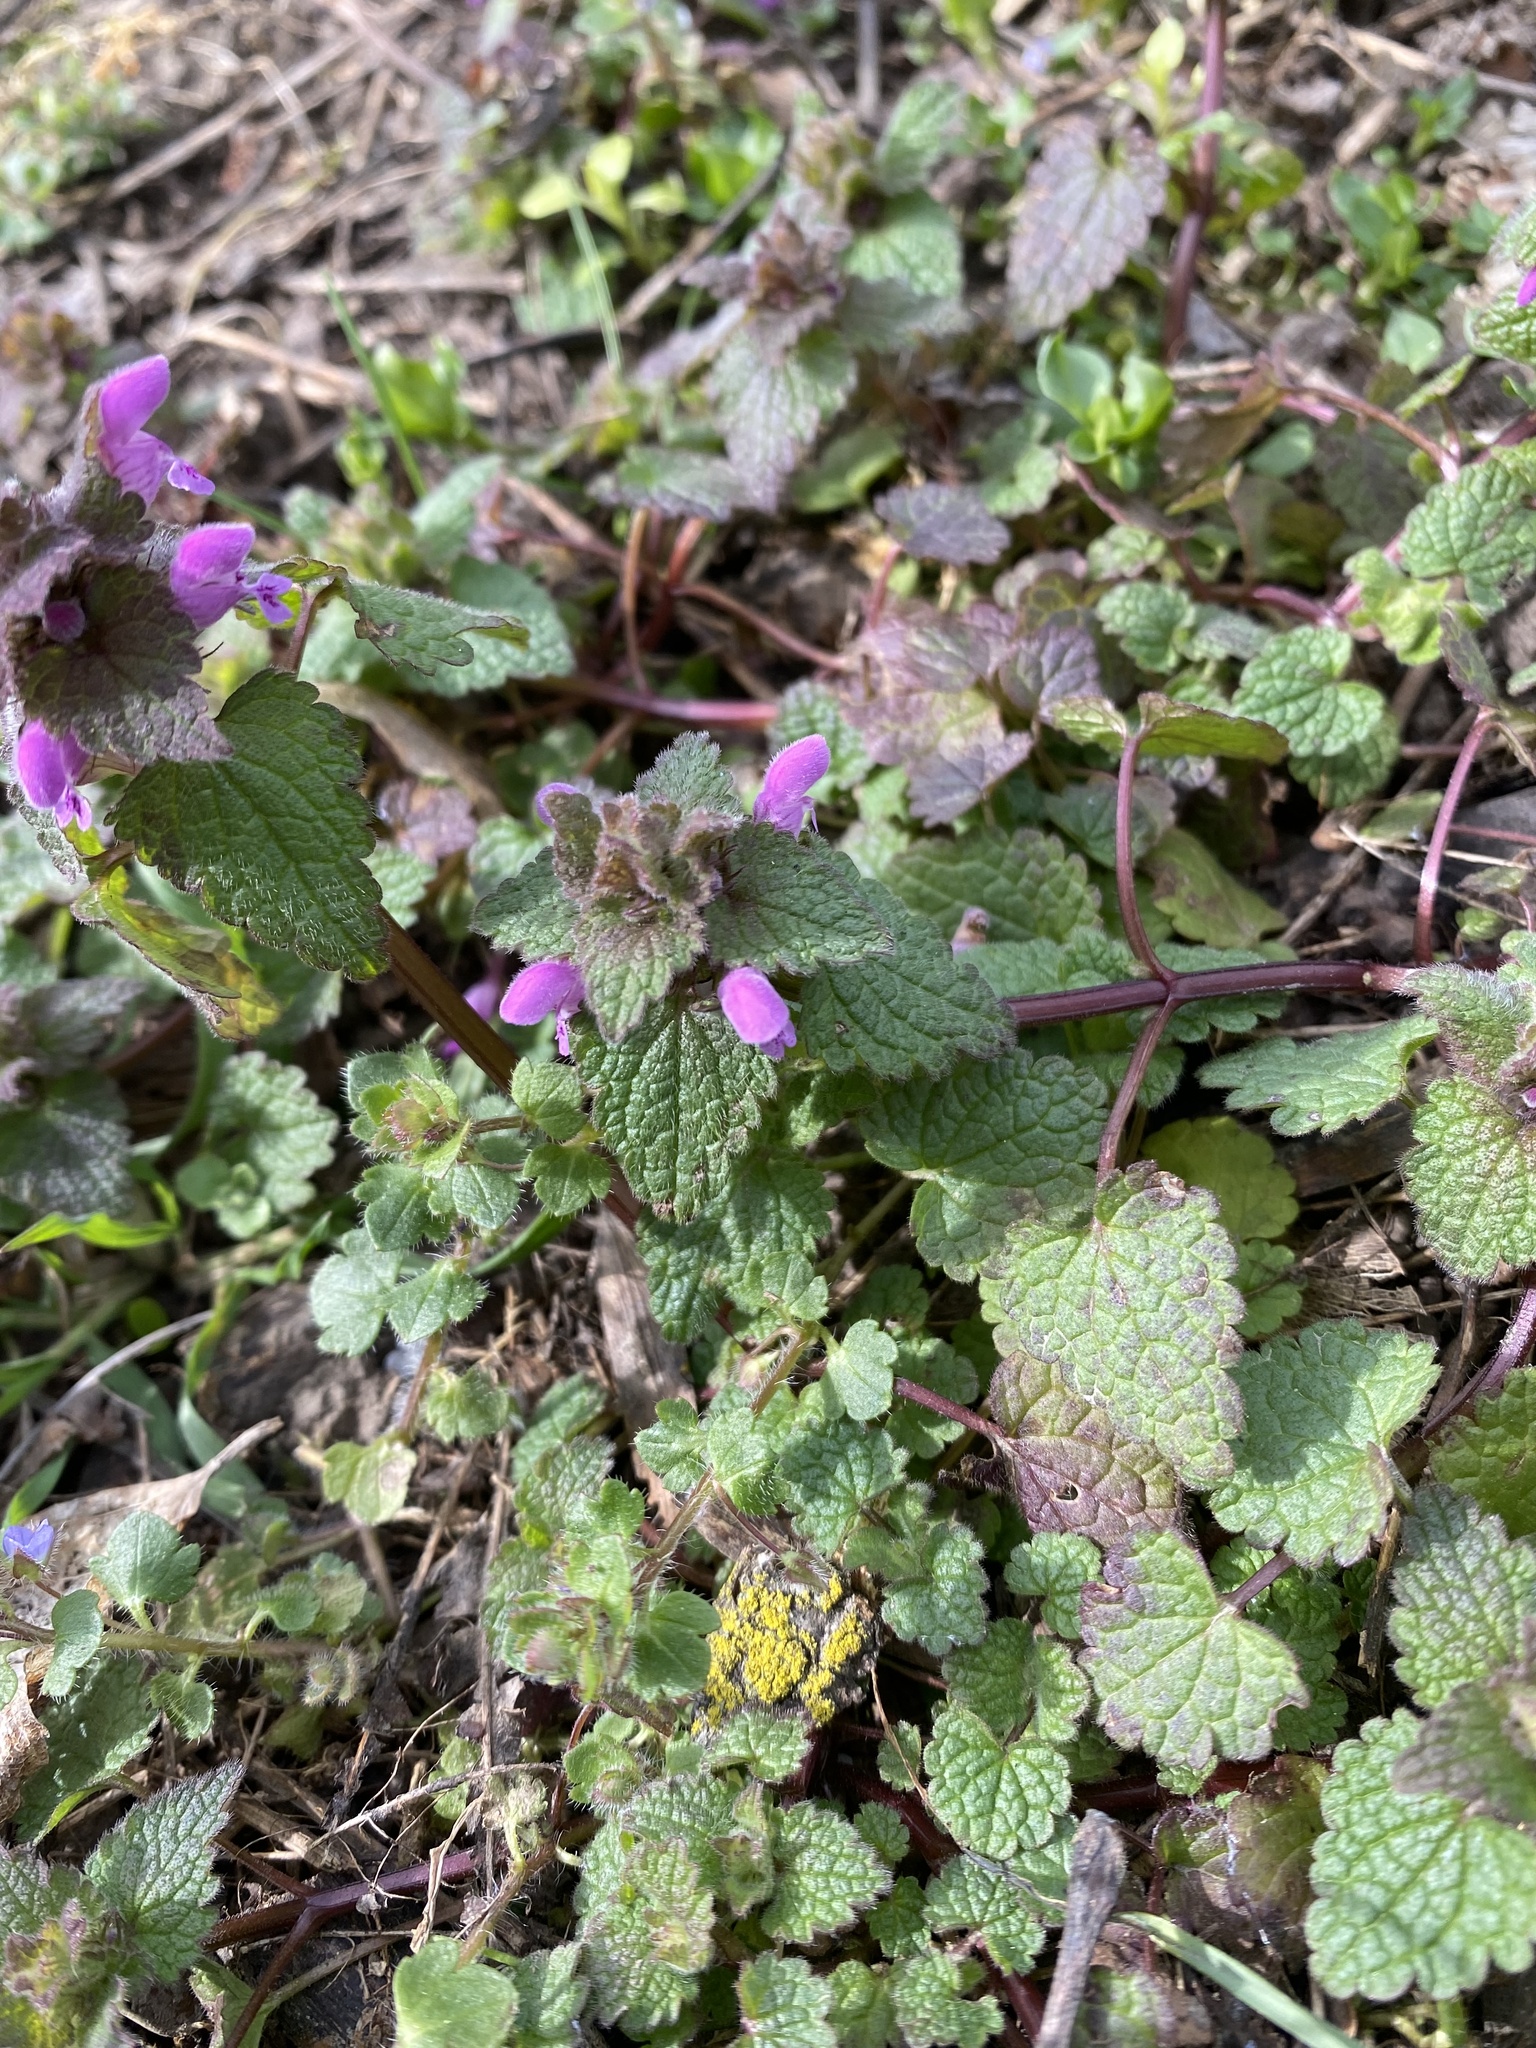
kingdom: Plantae
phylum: Tracheophyta
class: Magnoliopsida
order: Lamiales
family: Lamiaceae
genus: Lamium
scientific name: Lamium purpureum
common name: Red dead-nettle
